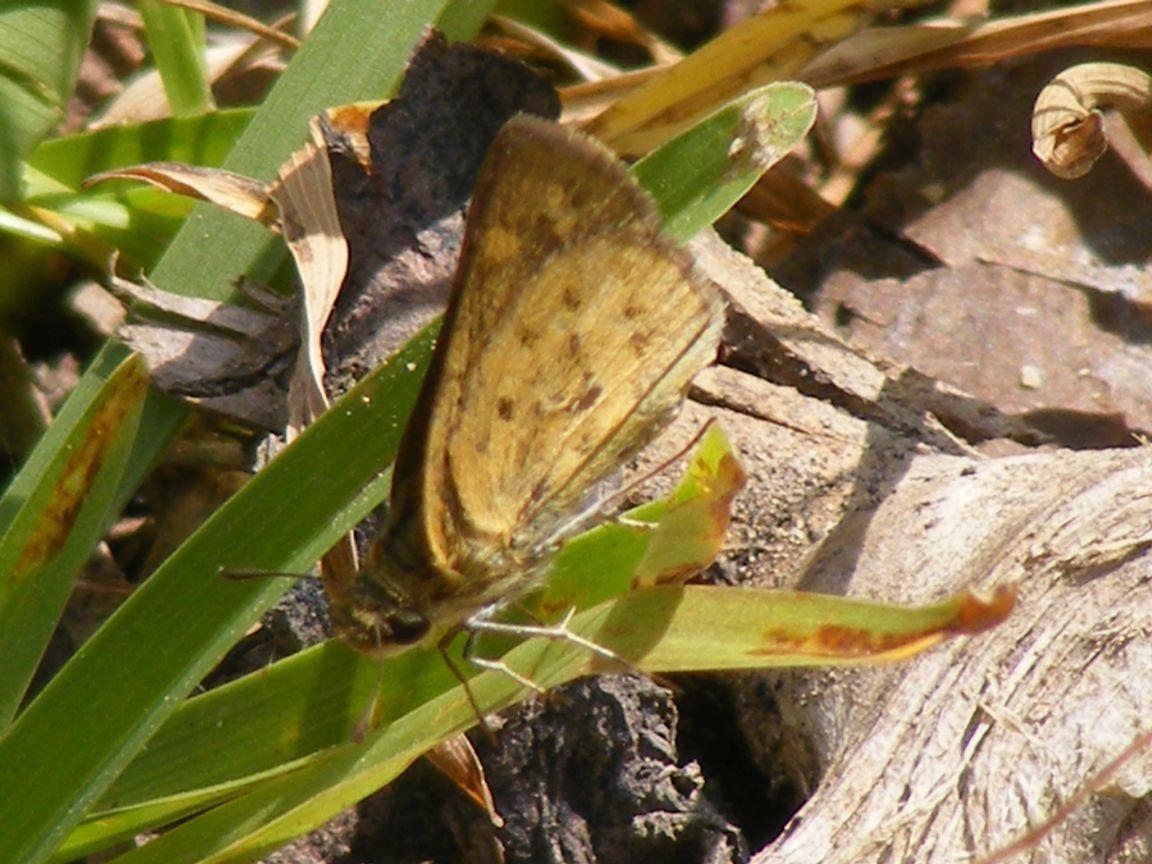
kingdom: Animalia
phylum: Arthropoda
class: Insecta
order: Lepidoptera
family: Hesperiidae
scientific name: Hesperiidae
